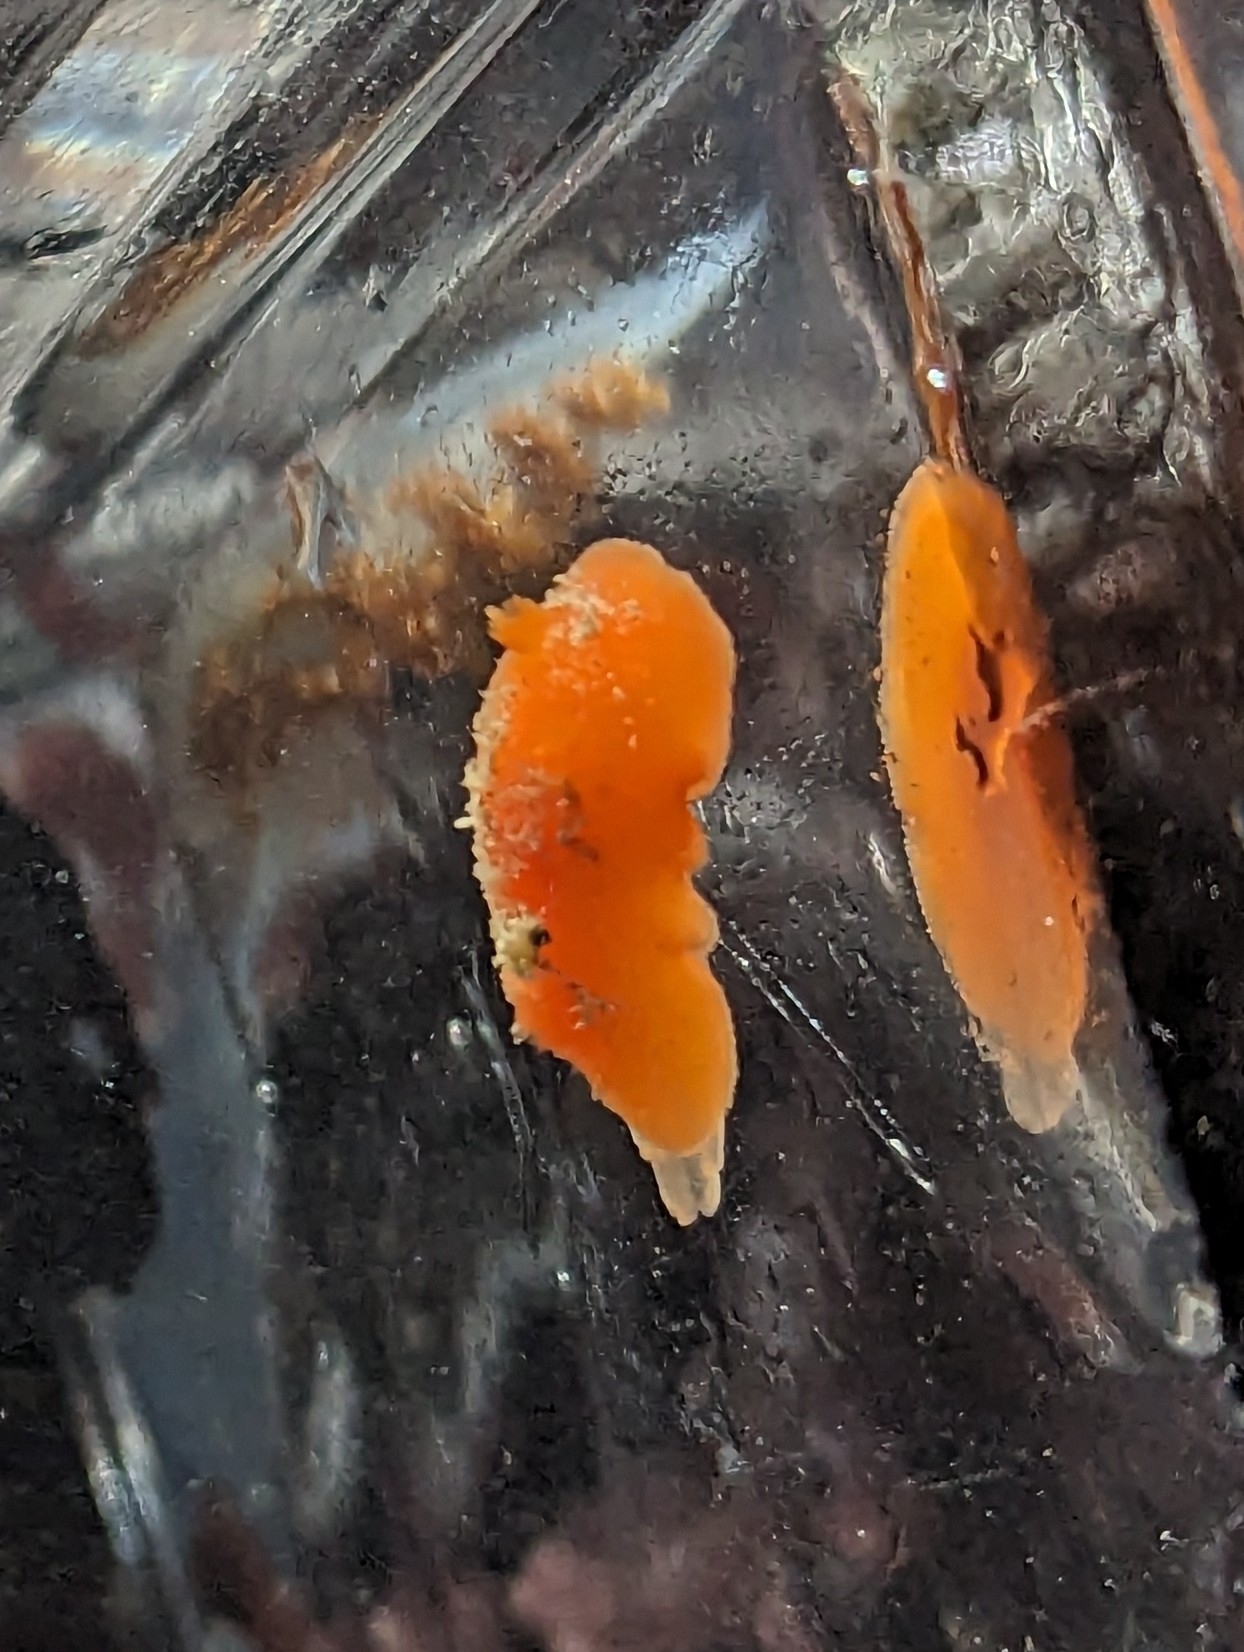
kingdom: Animalia
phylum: Mollusca
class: Gastropoda
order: Nudibranchia
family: Discodorididae
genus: Rostanga
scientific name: Rostanga pulchra
